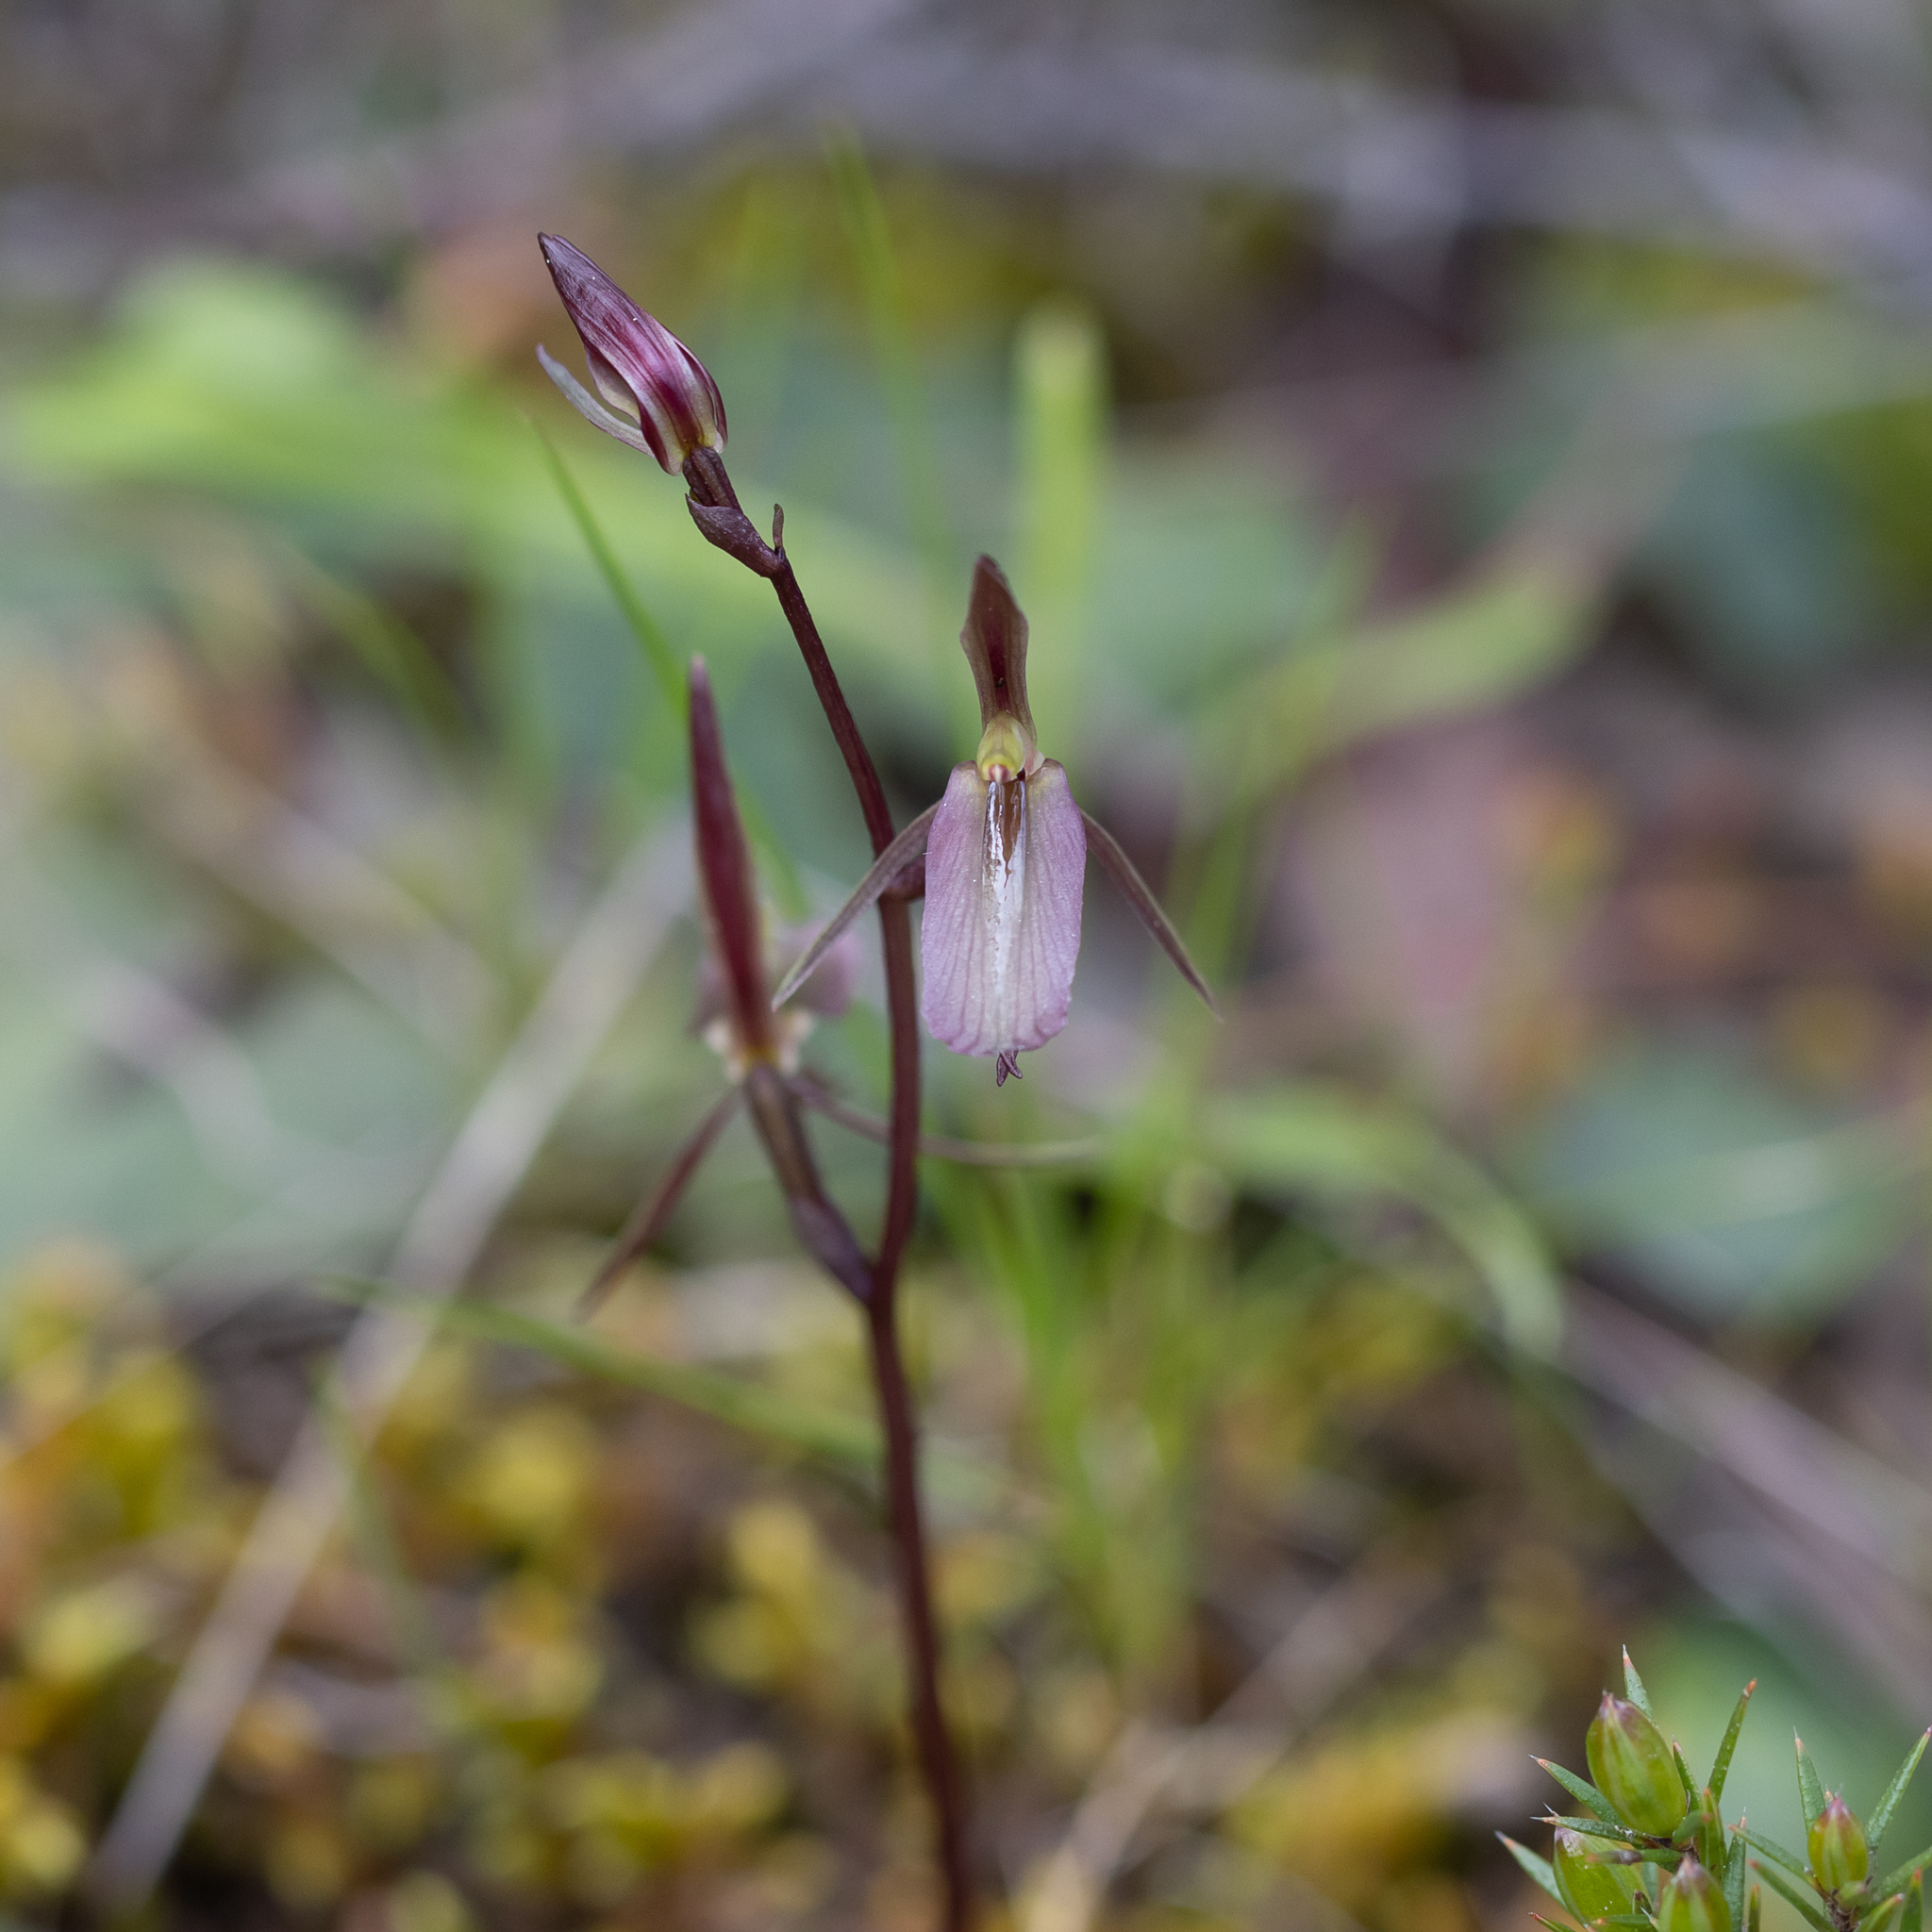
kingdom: Plantae
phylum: Tracheophyta
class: Liliopsida
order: Asparagales
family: Orchidaceae
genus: Cyrtostylis
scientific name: Cyrtostylis reniformis
